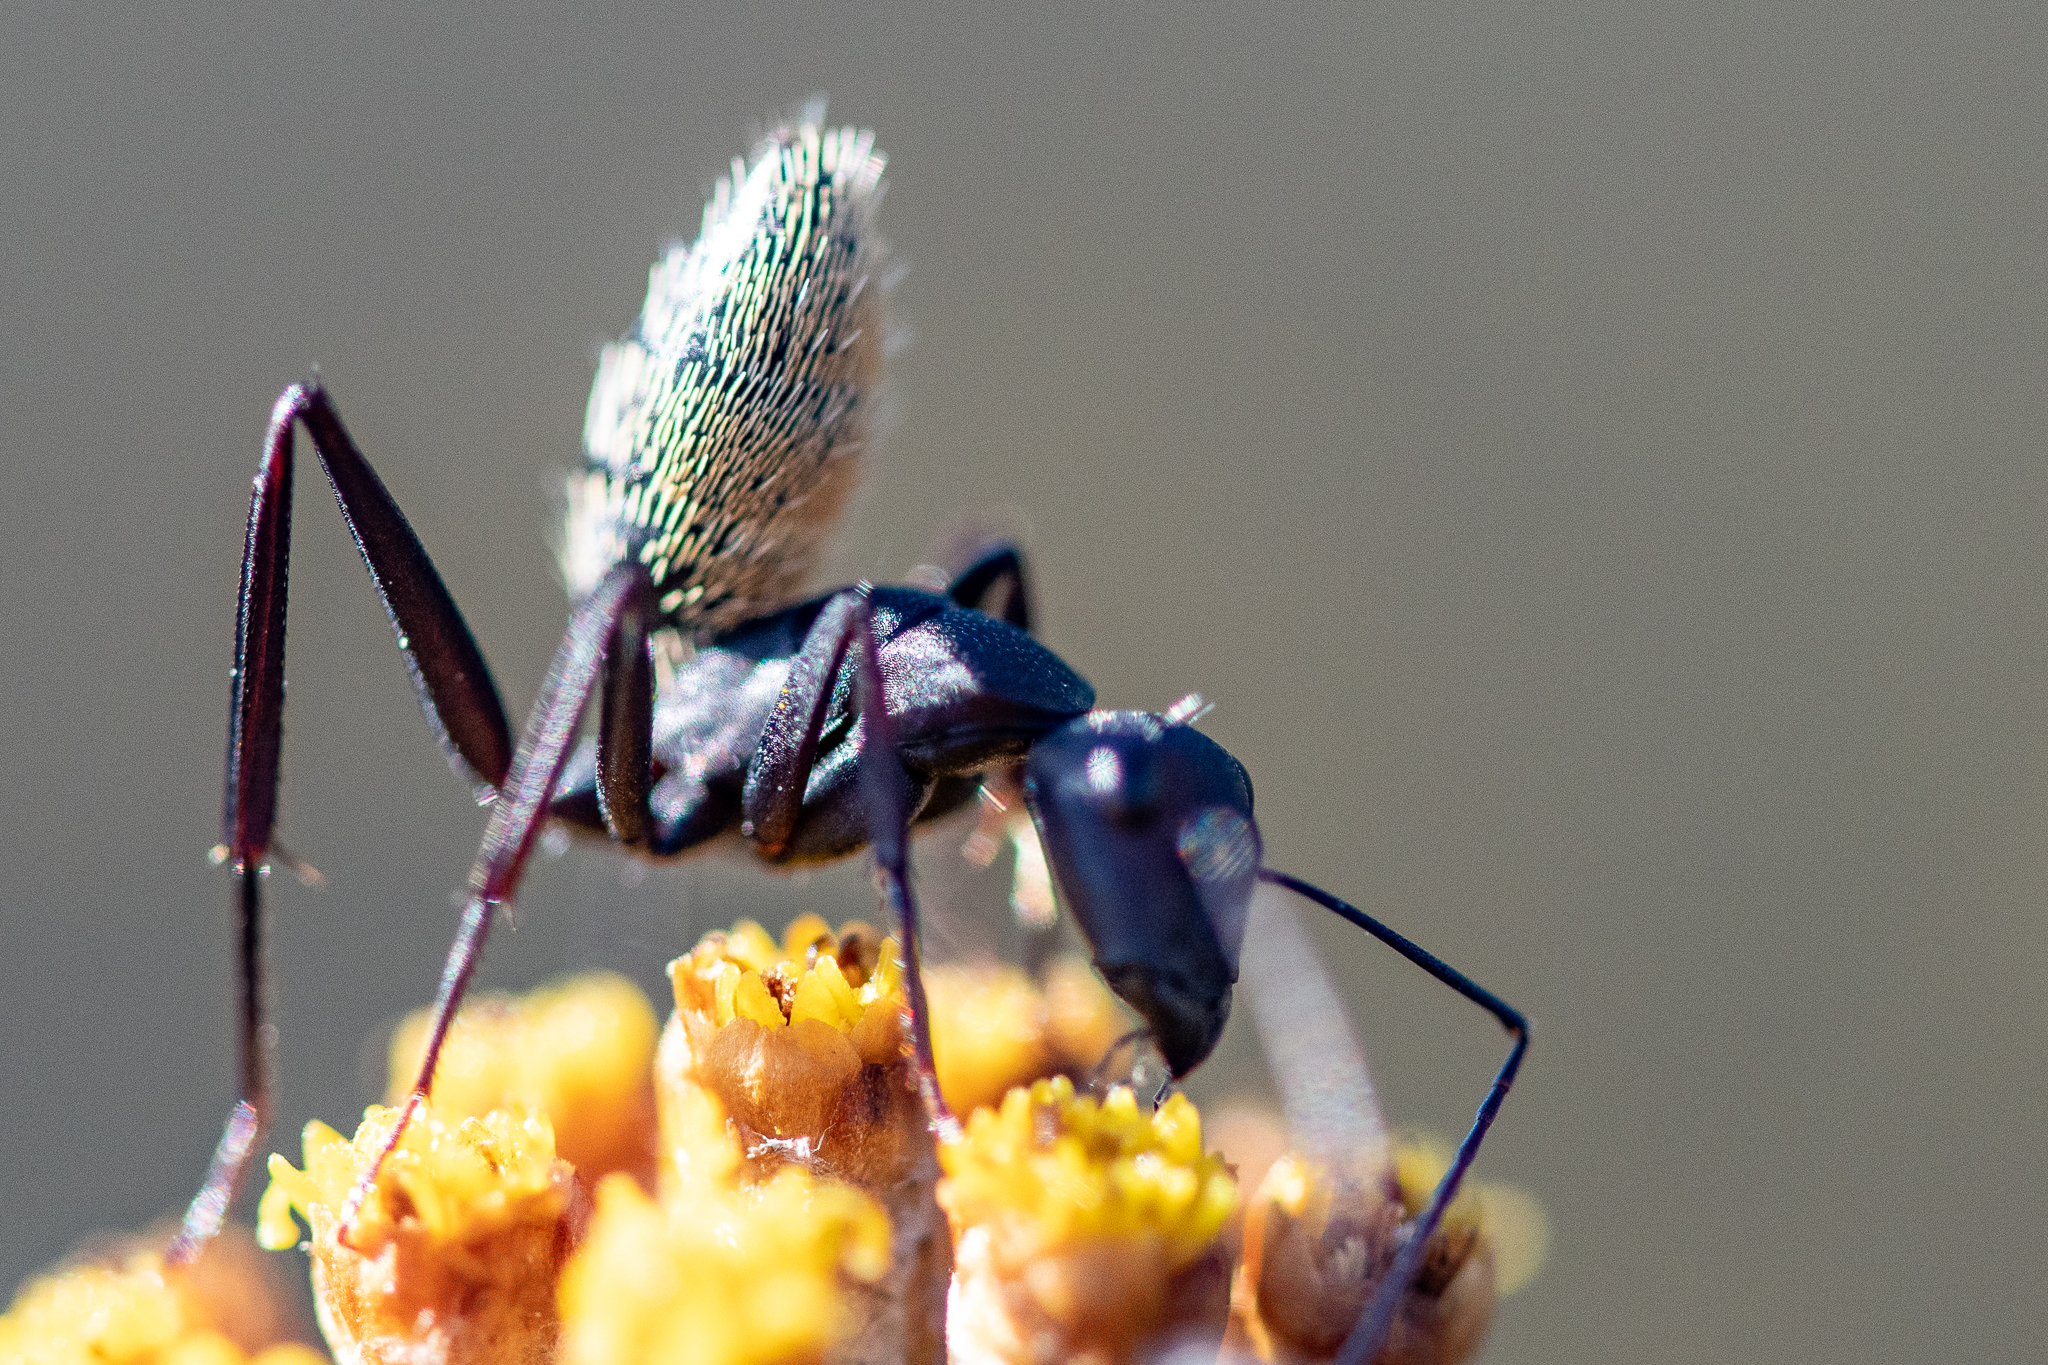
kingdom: Animalia
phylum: Arthropoda
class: Insecta
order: Hymenoptera
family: Formicidae
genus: Camponotus
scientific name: Camponotus fulvopilosus
